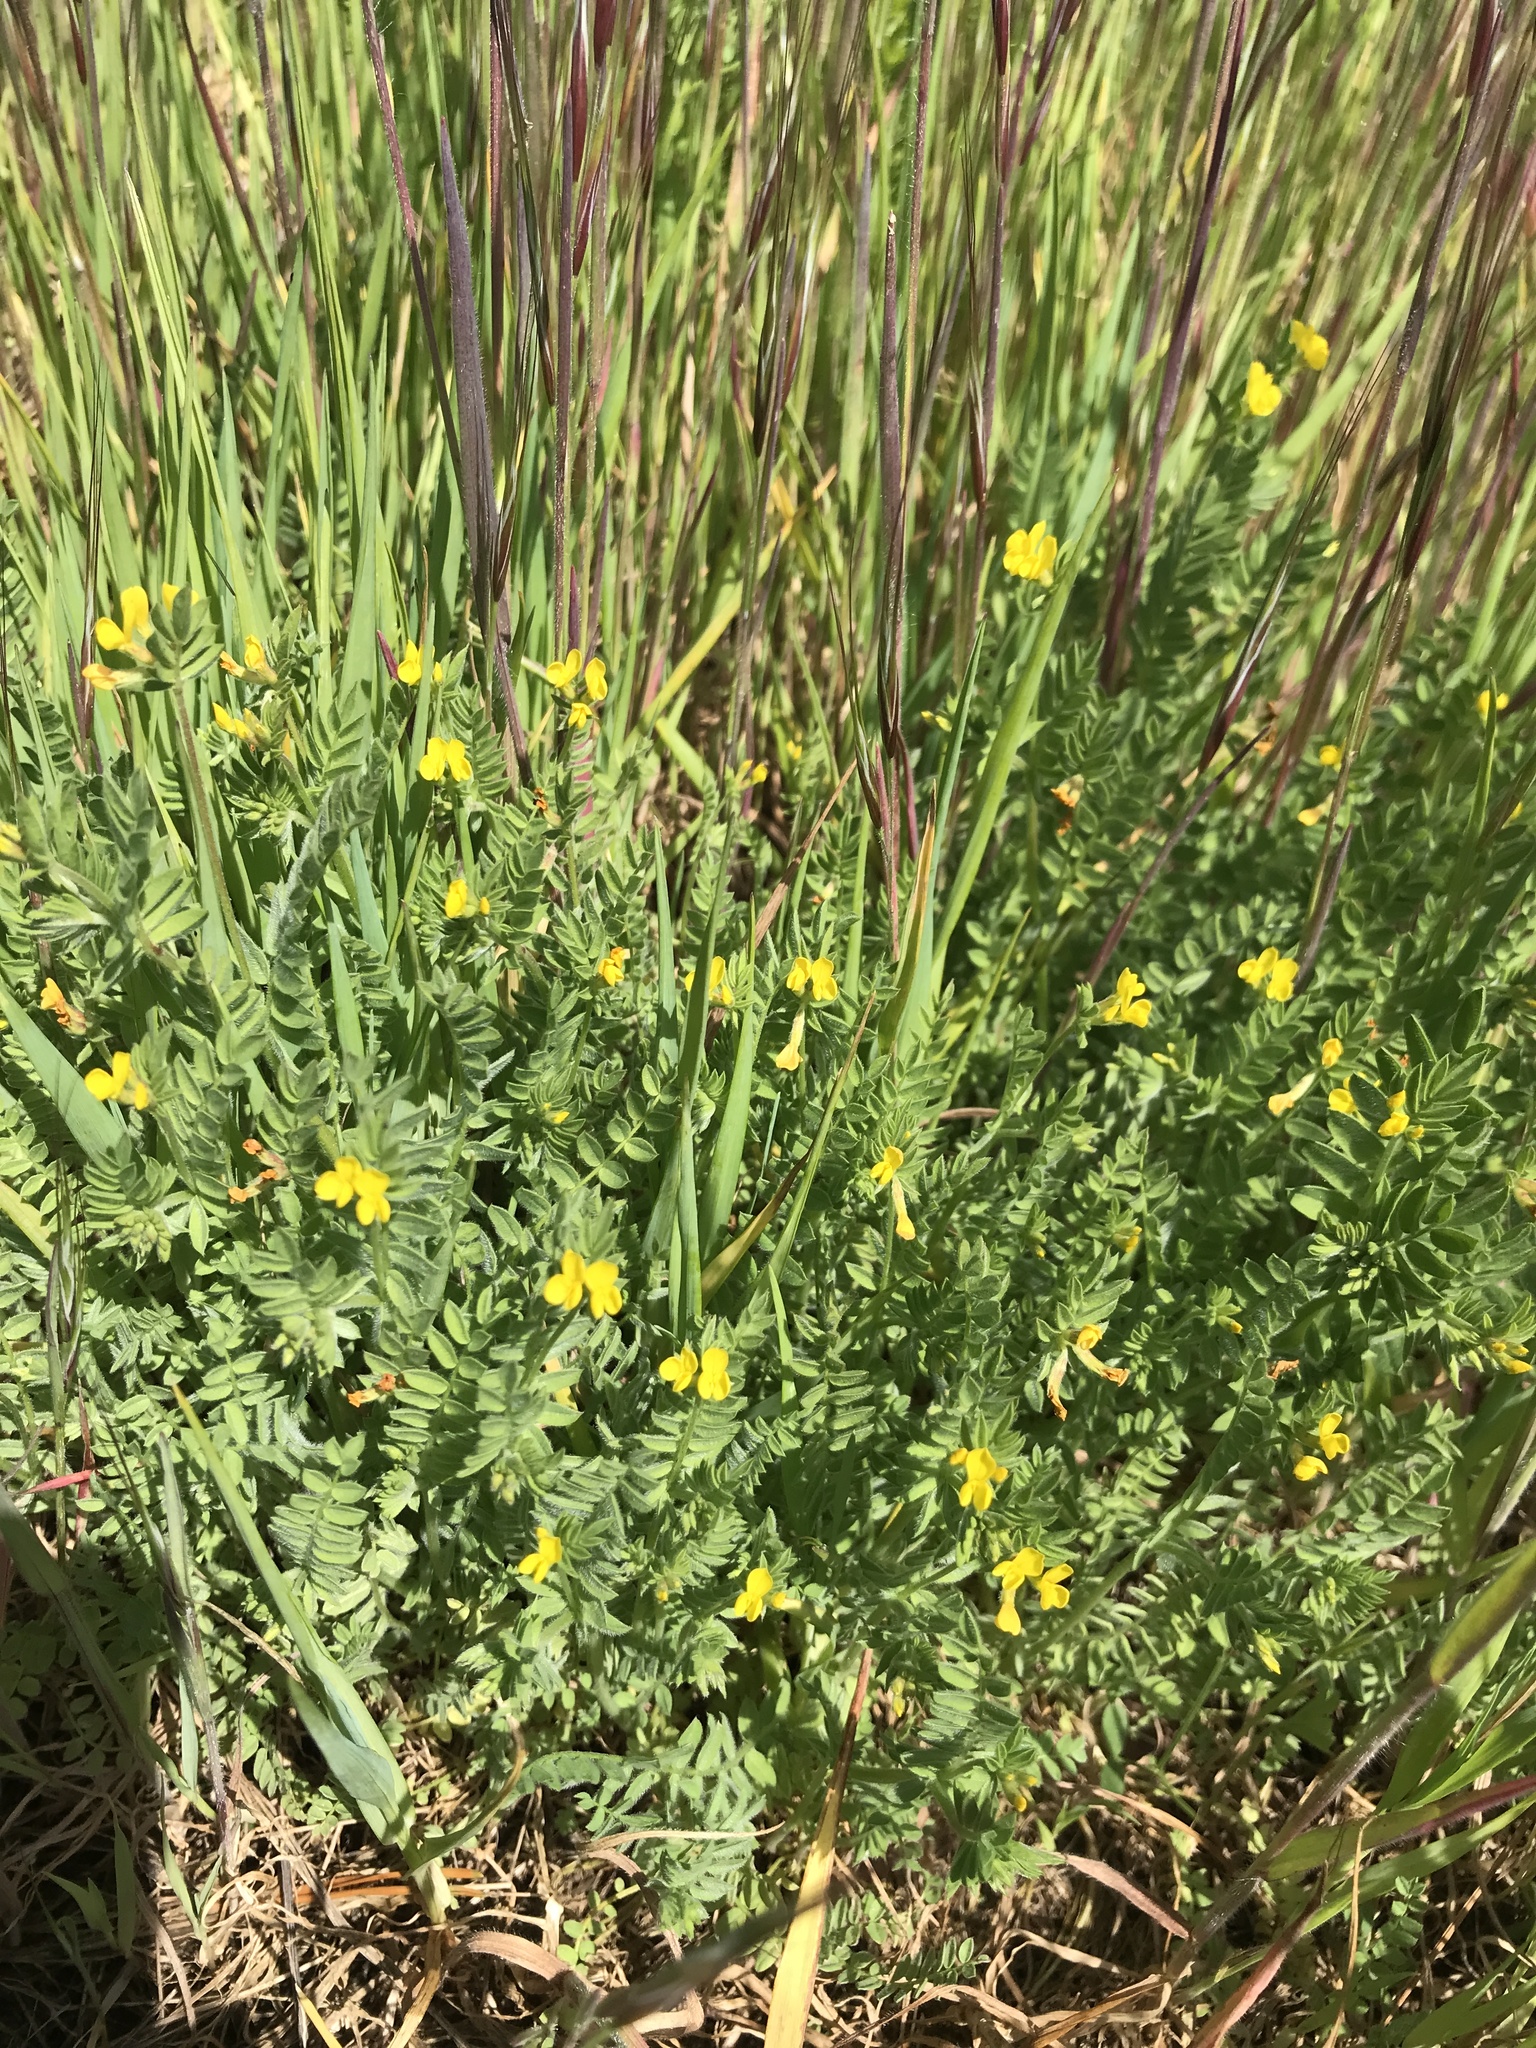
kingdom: Plantae
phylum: Tracheophyta
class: Magnoliopsida
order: Fabales
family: Fabaceae
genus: Ornithopus
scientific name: Ornithopus compressus
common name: Yellow serradella
